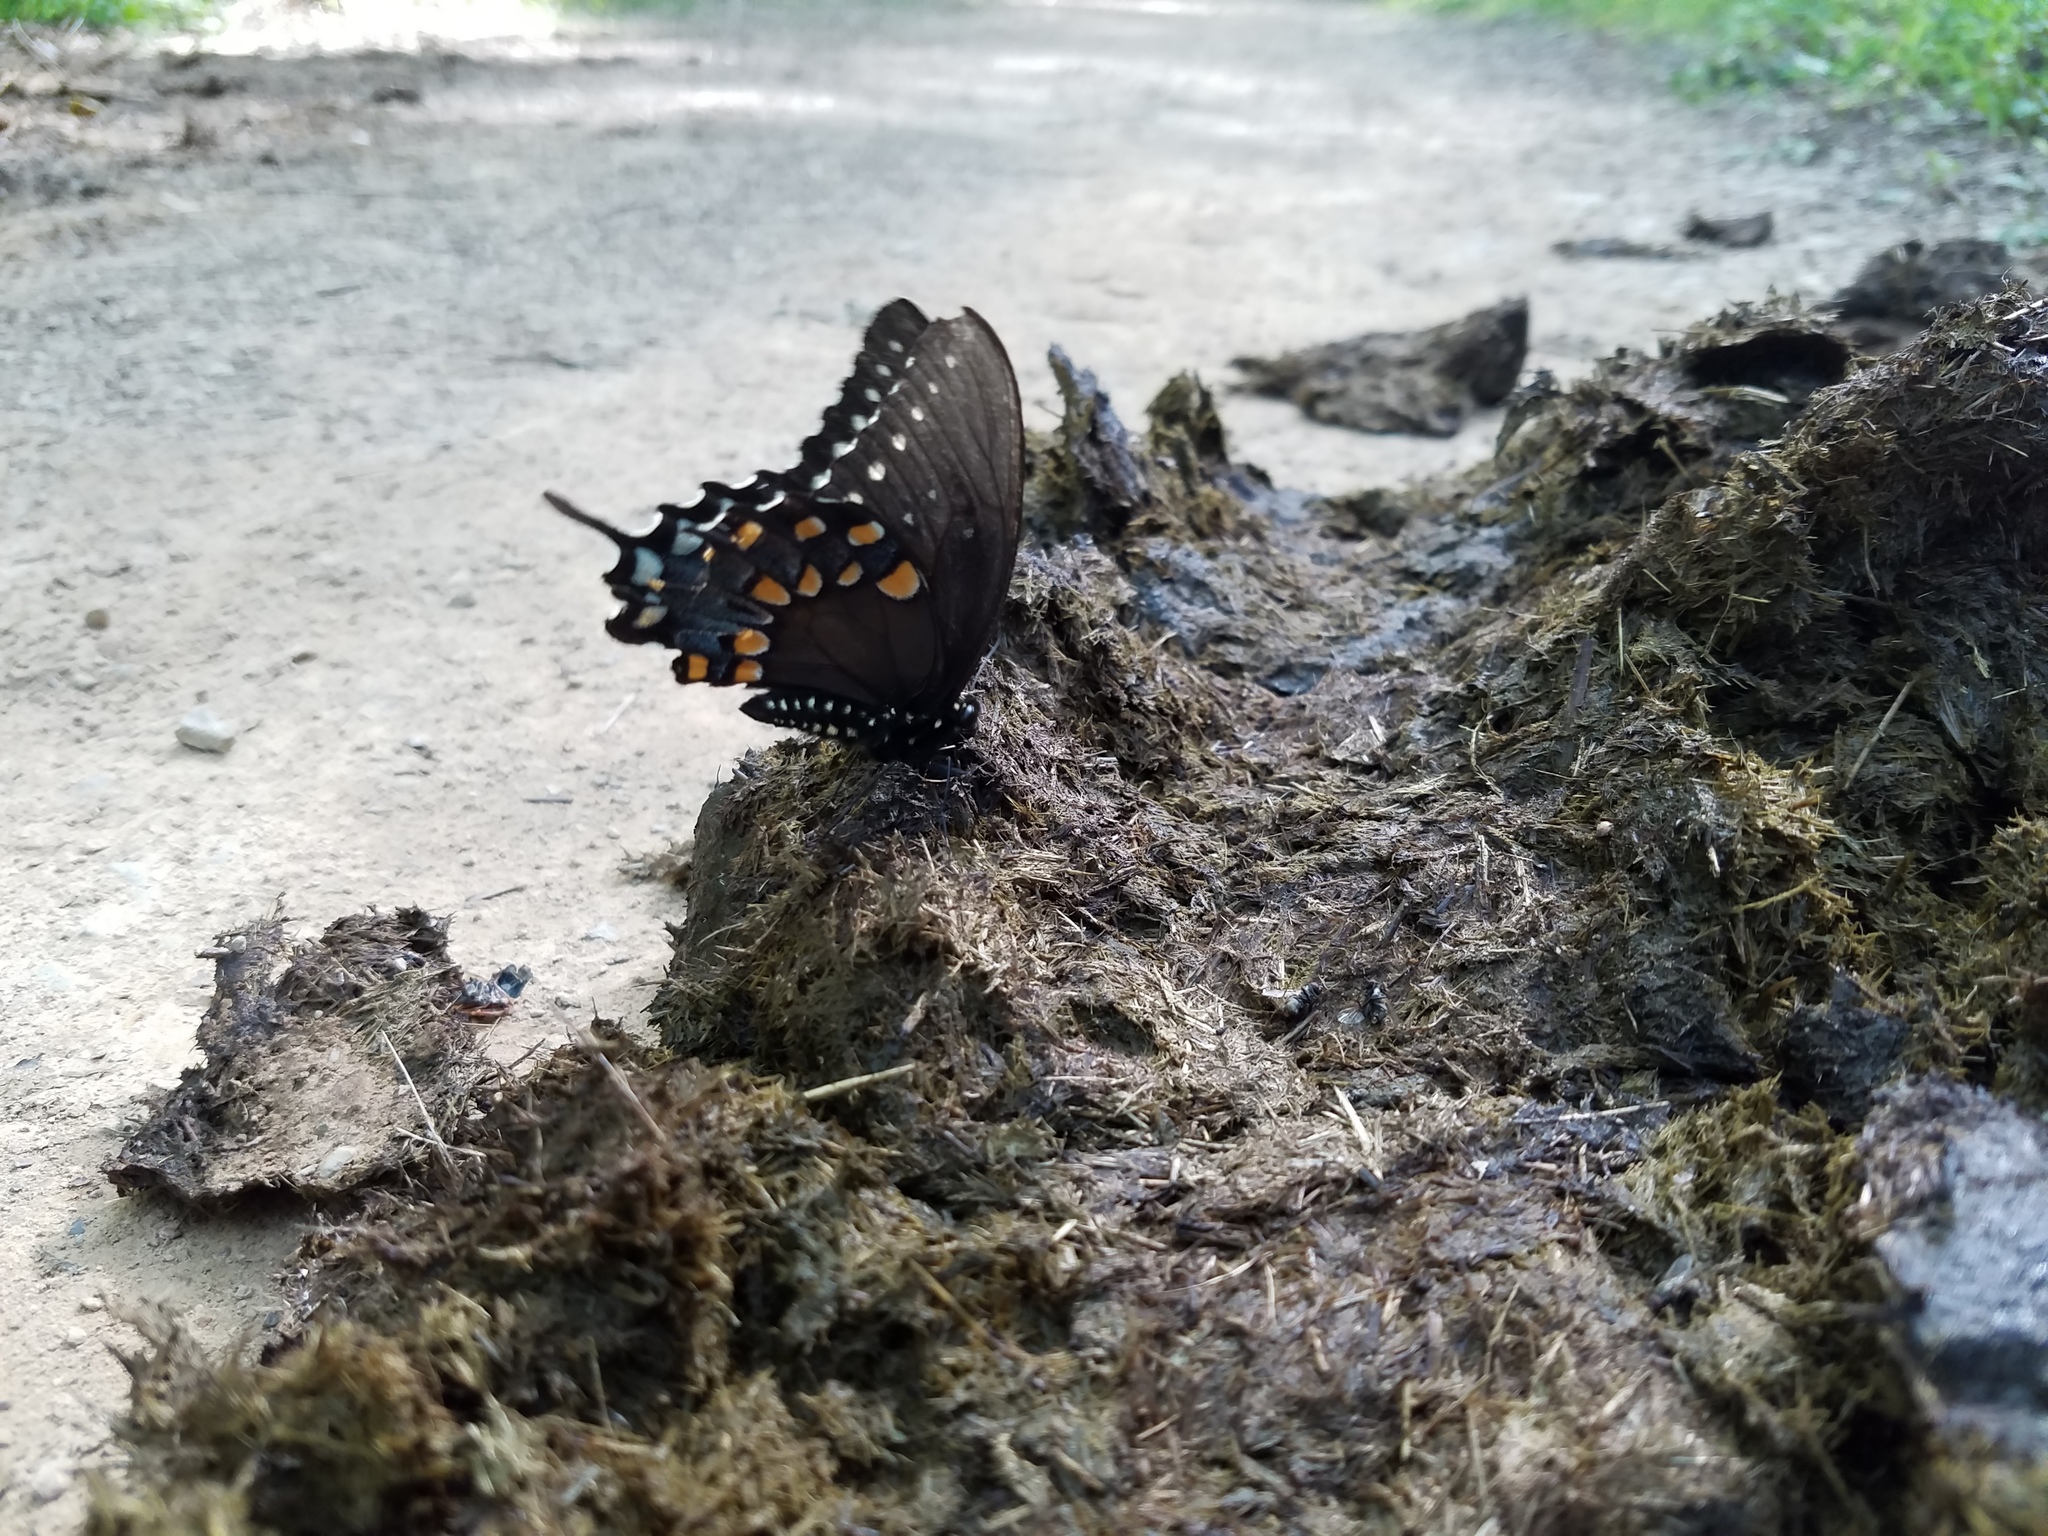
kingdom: Animalia
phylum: Arthropoda
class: Insecta
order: Lepidoptera
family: Papilionidae
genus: Papilio
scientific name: Papilio troilus
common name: Spicebush swallowtail
